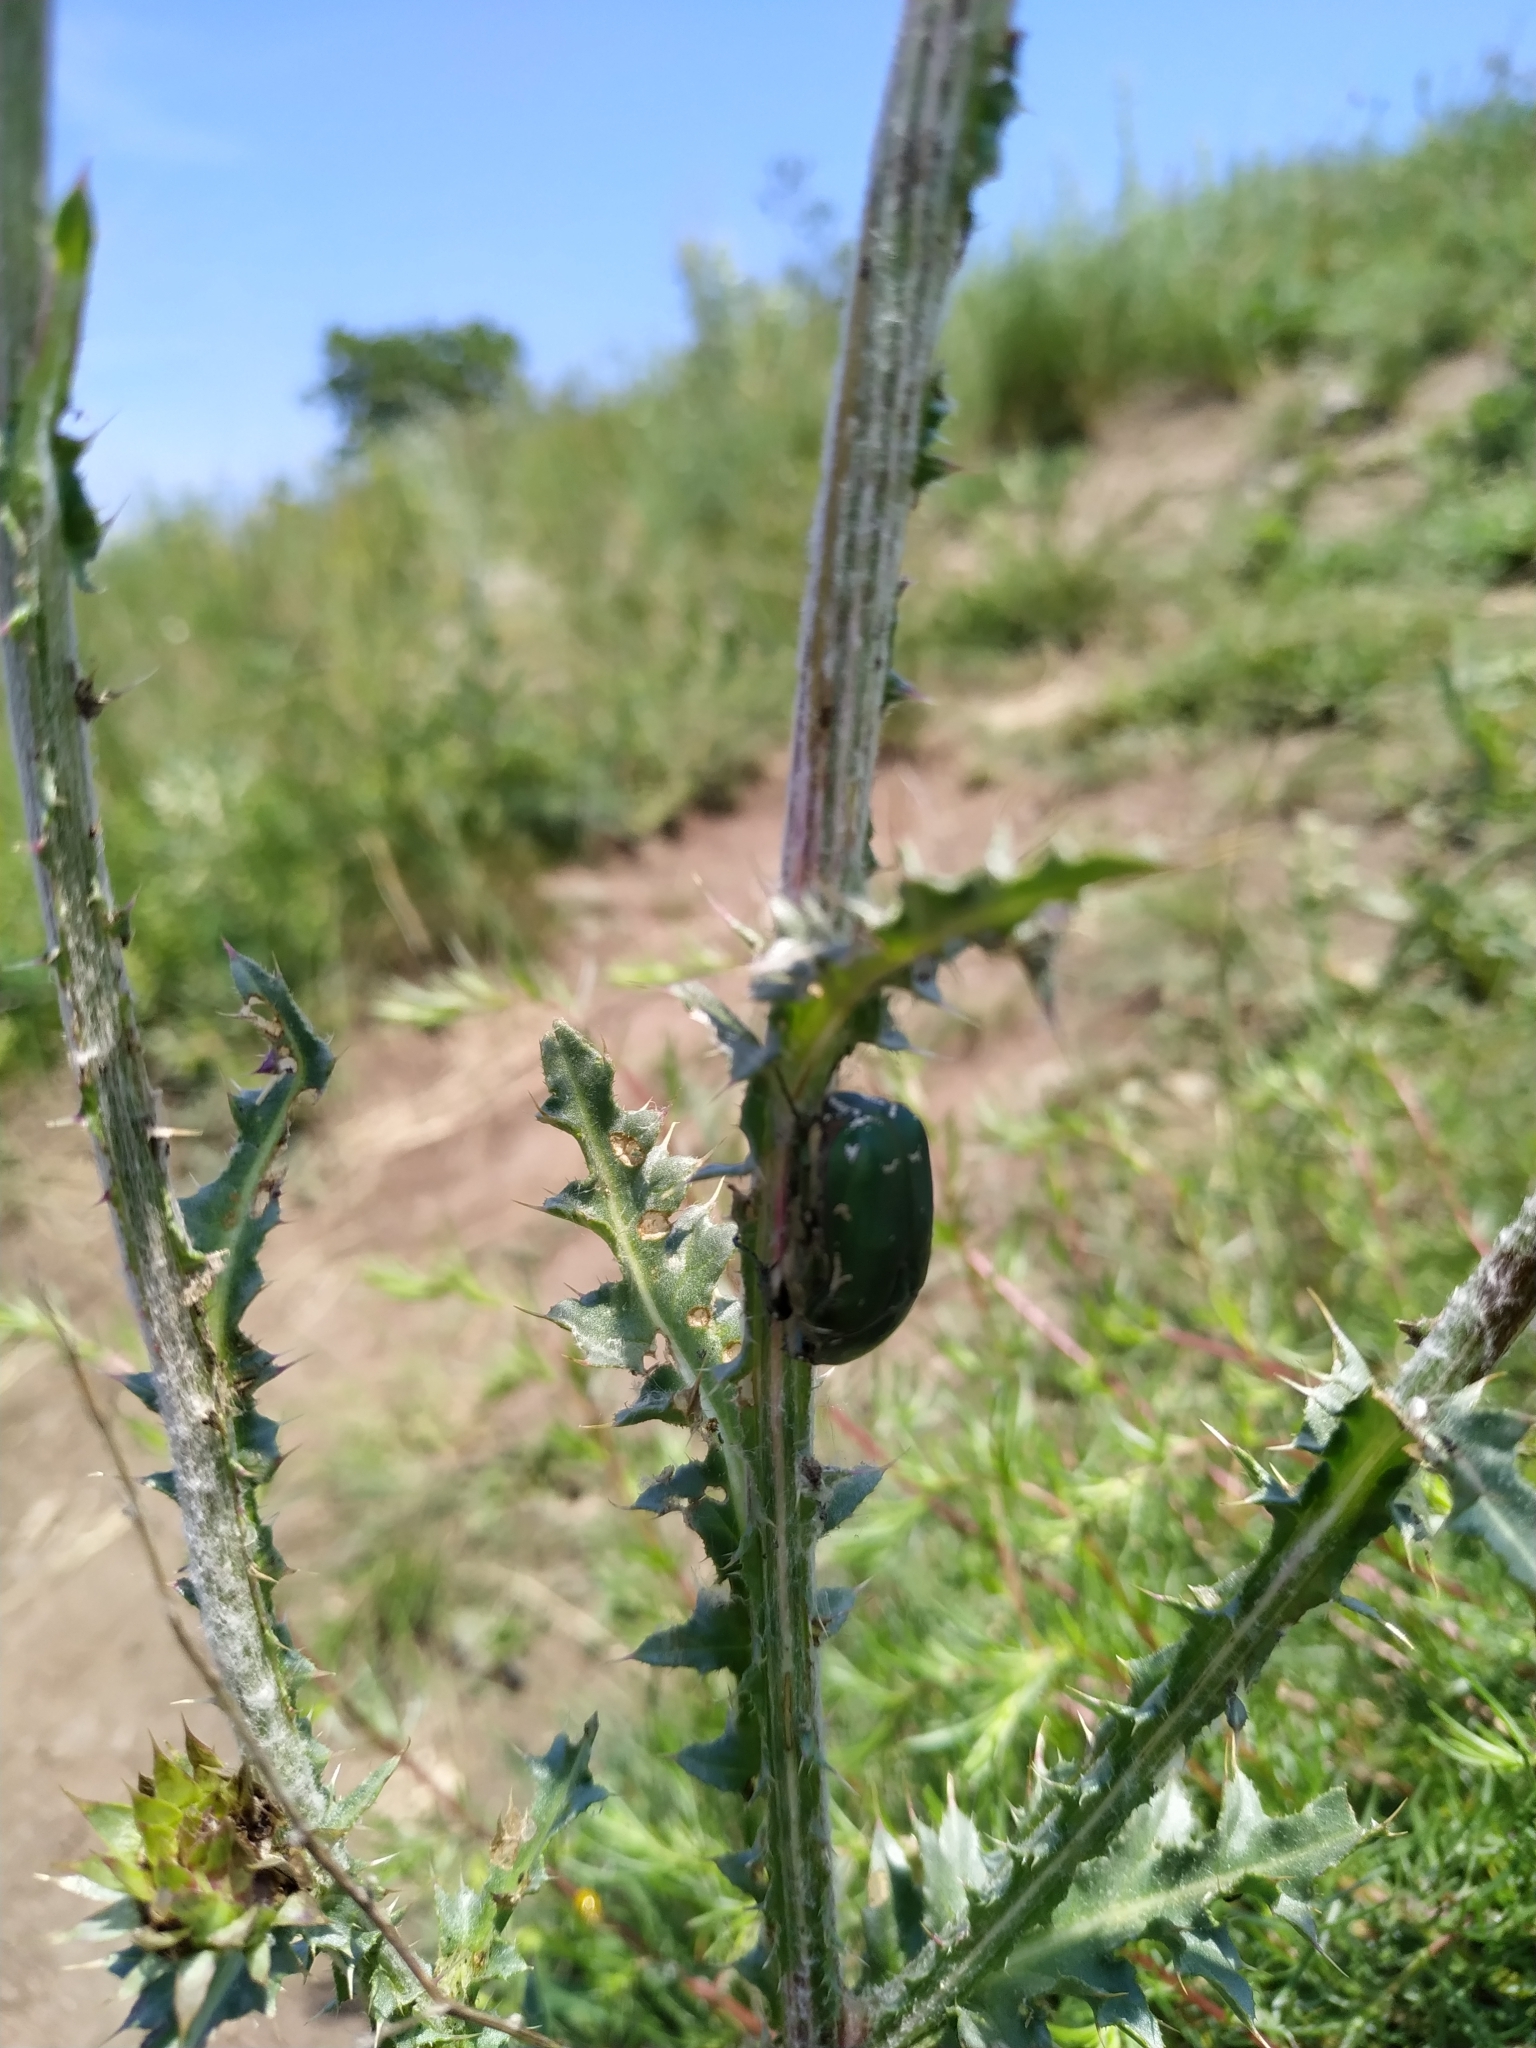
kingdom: Animalia
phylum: Arthropoda
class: Insecta
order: Coleoptera
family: Scarabaeidae
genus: Protaetia
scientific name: Protaetia ungarica
